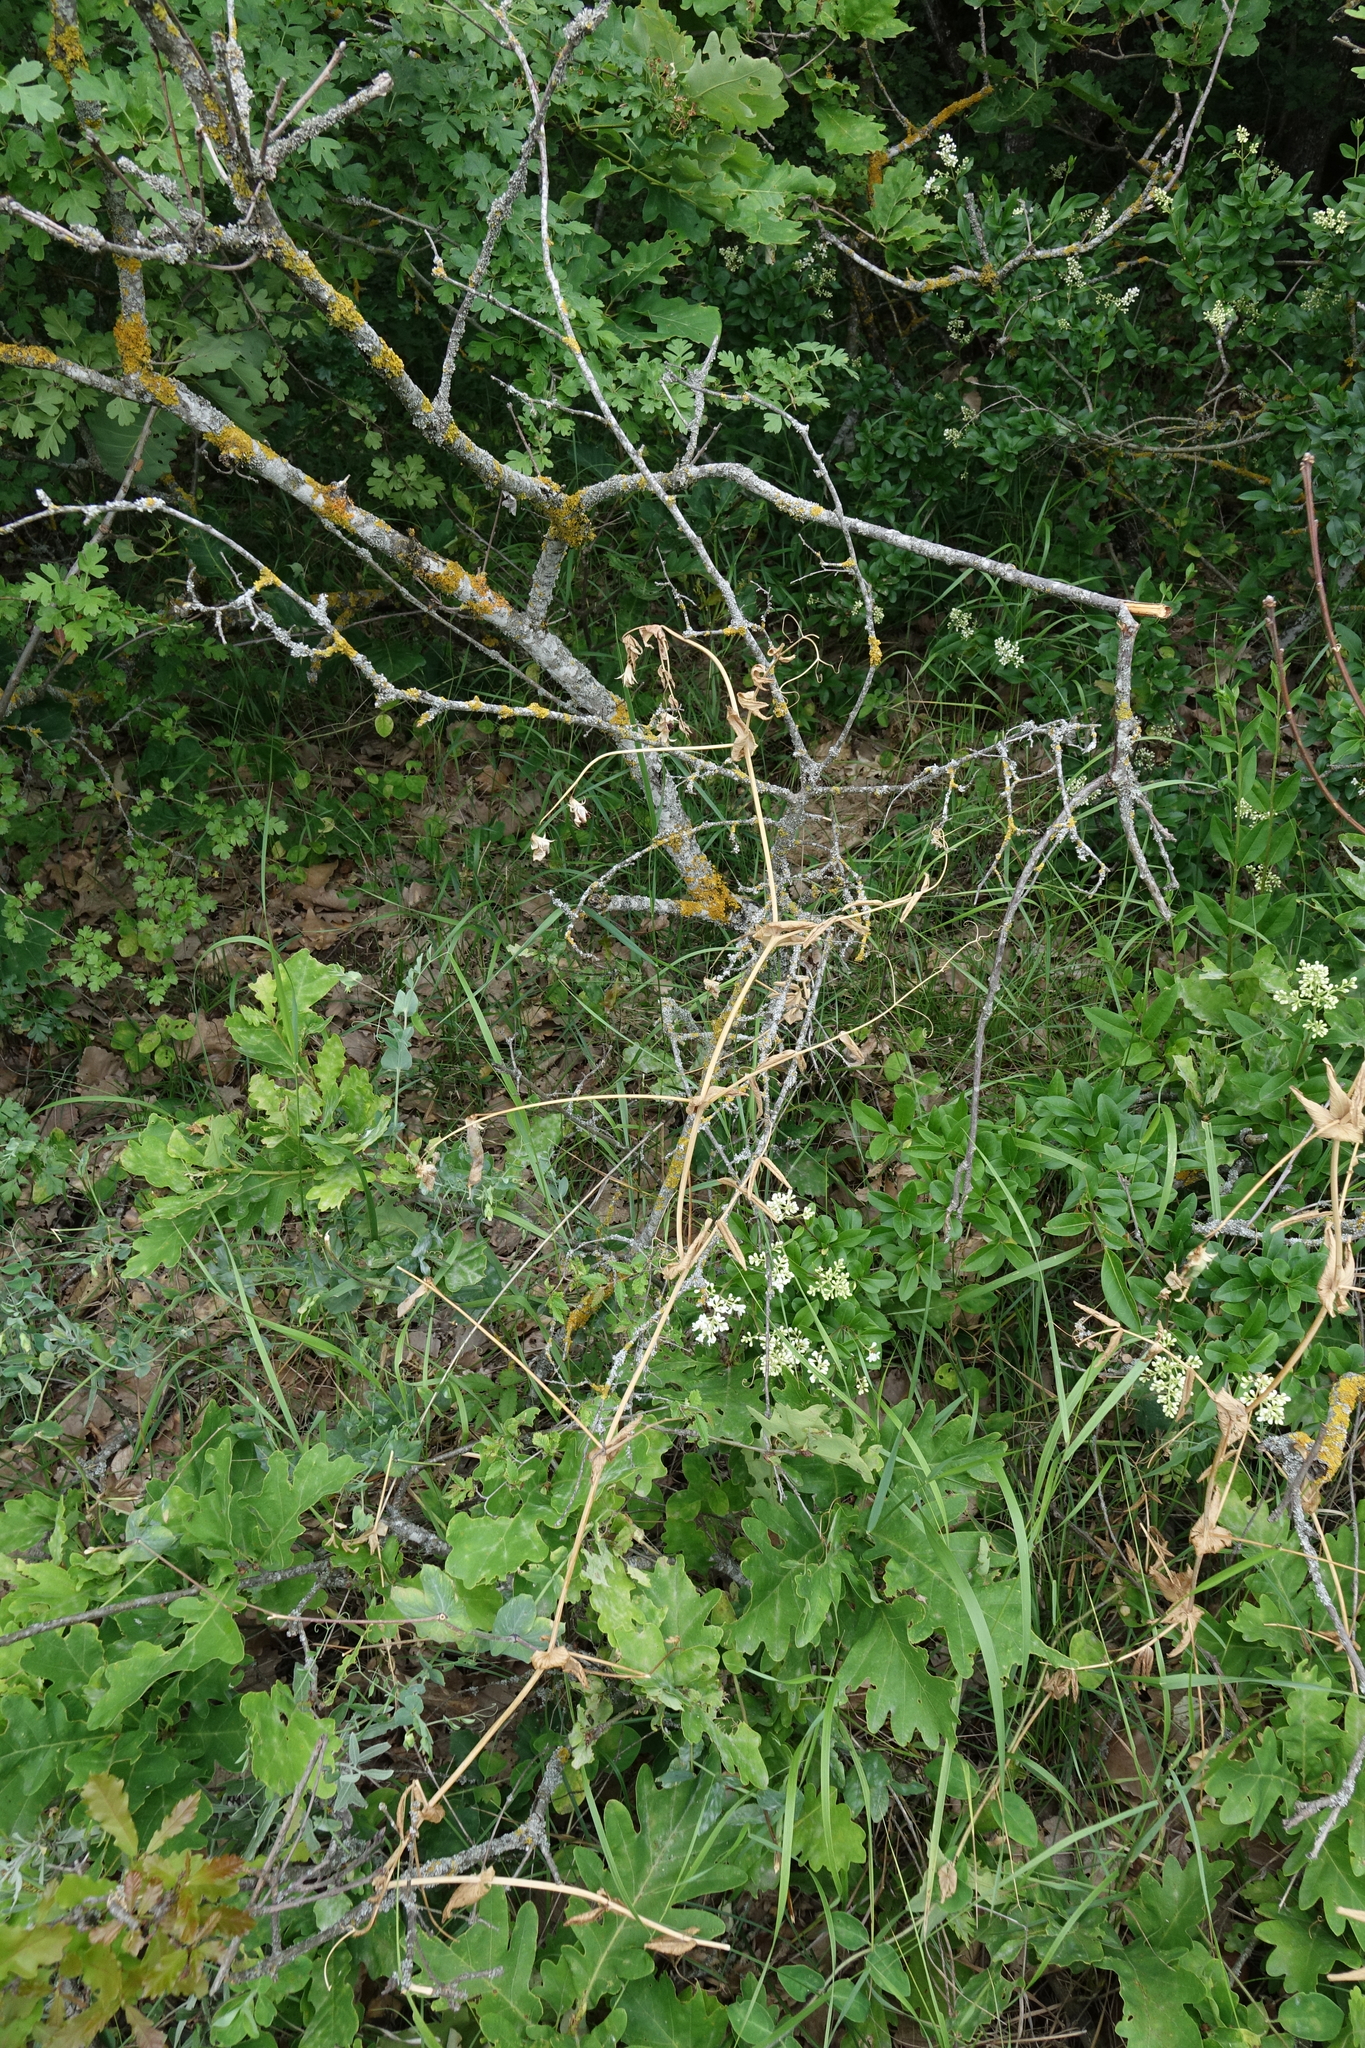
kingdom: Plantae
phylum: Tracheophyta
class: Magnoliopsida
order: Fabales
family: Fabaceae
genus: Lathyrus
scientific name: Lathyrus oleraceus
